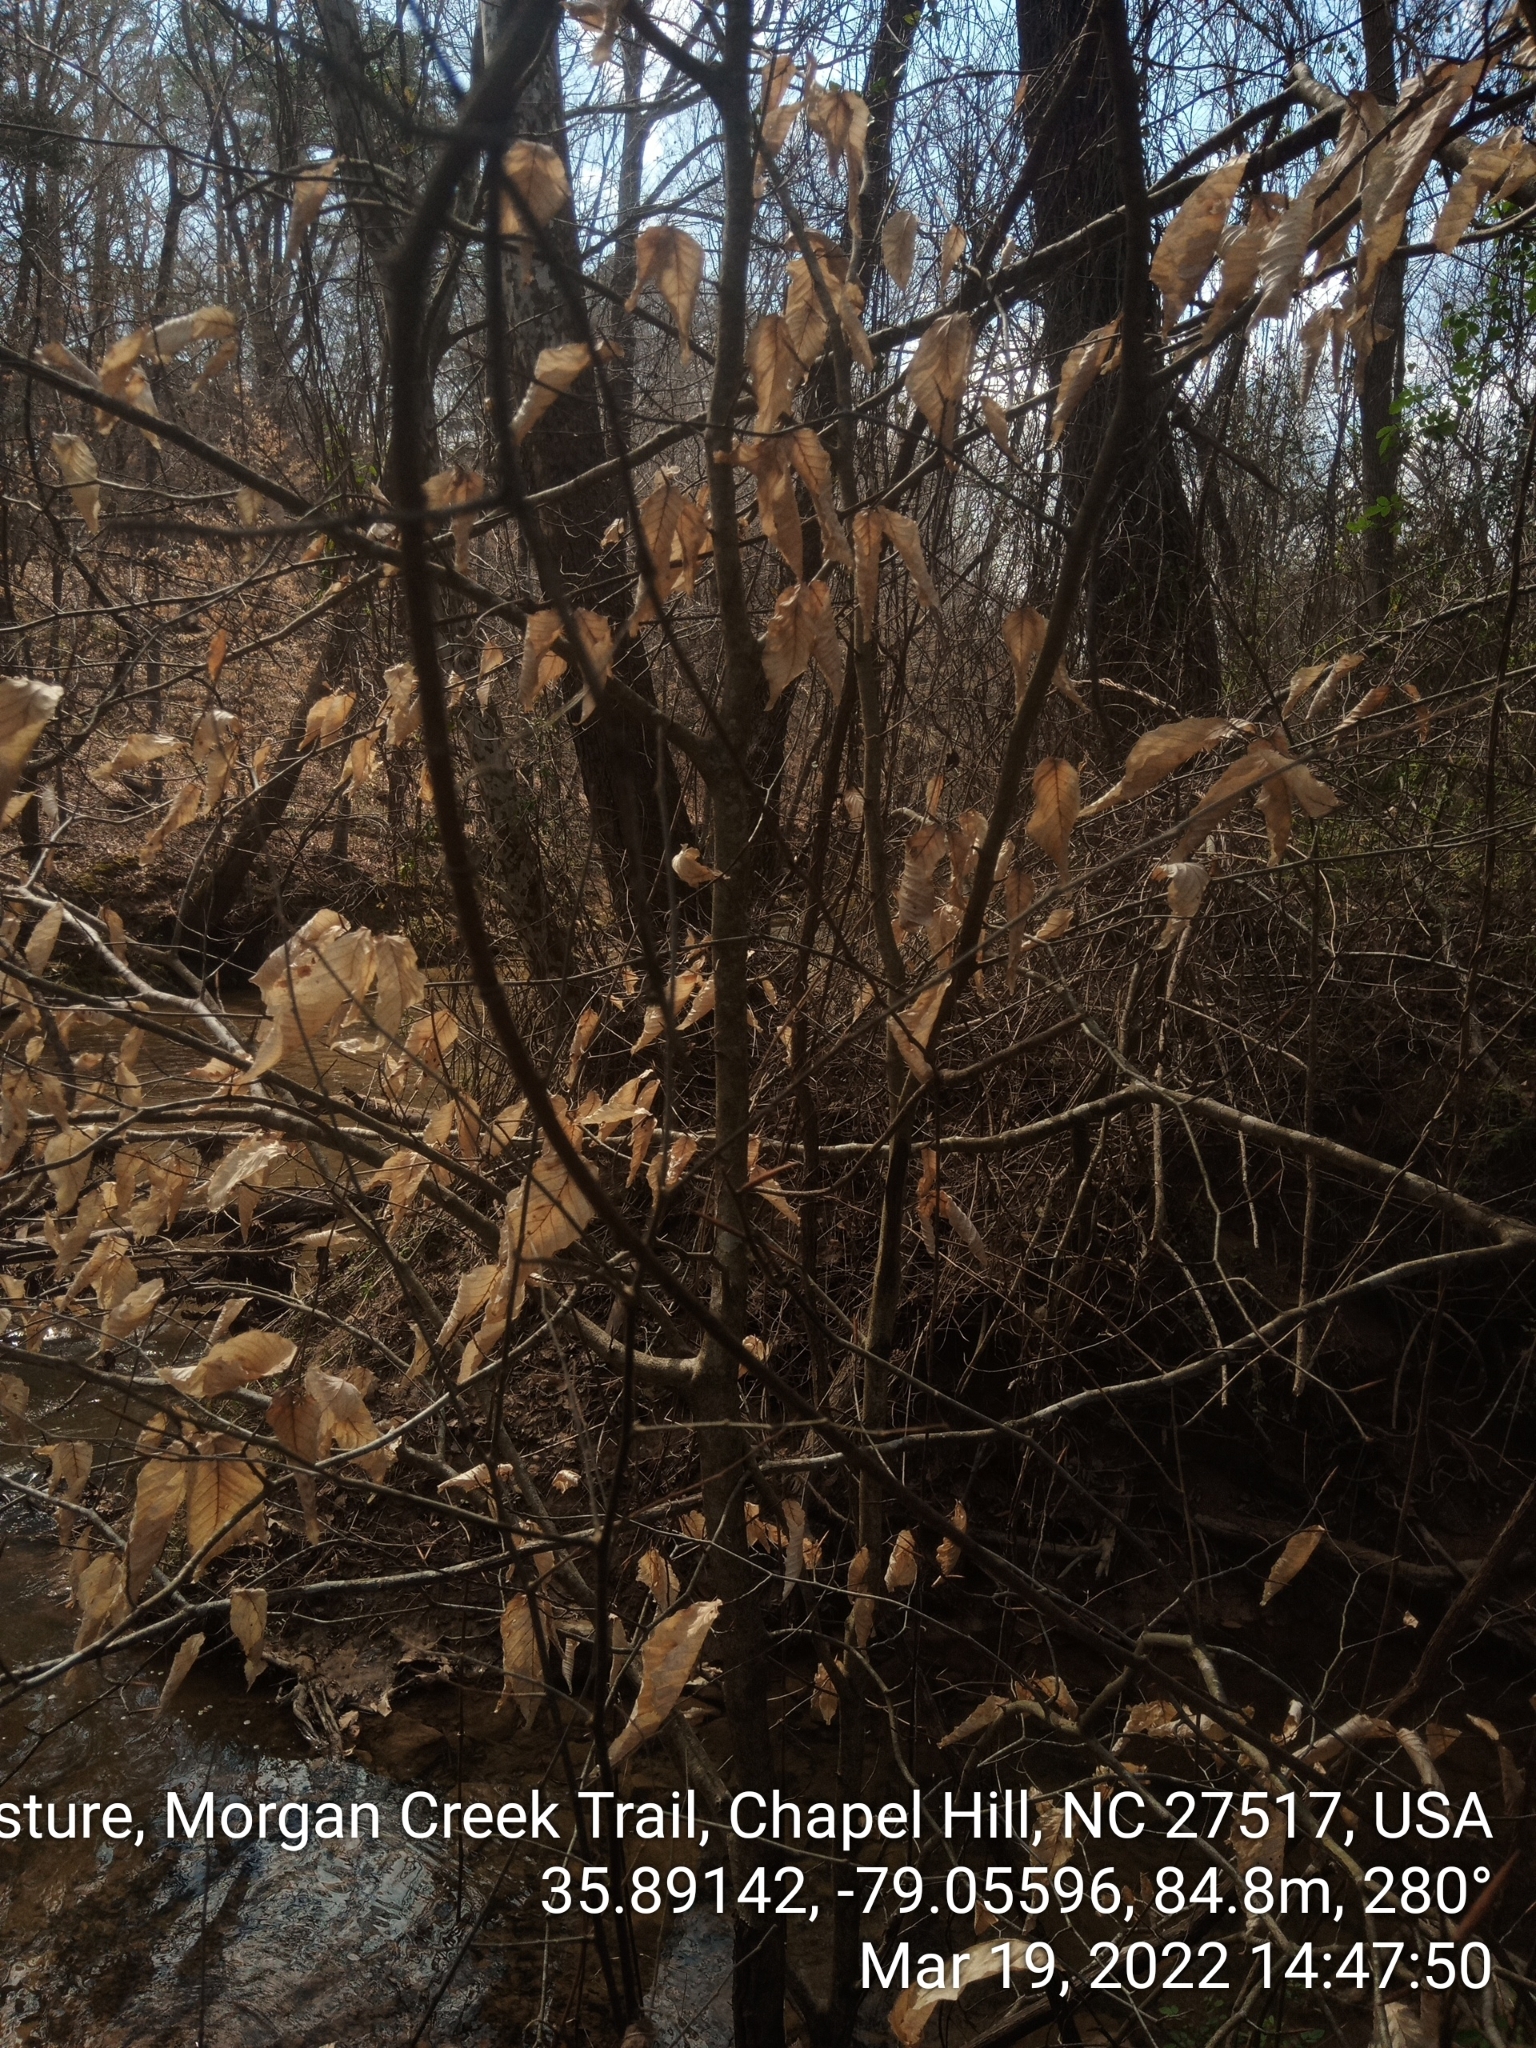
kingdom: Plantae
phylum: Tracheophyta
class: Magnoliopsida
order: Fagales
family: Fagaceae
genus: Fagus
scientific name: Fagus grandifolia
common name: American beech
